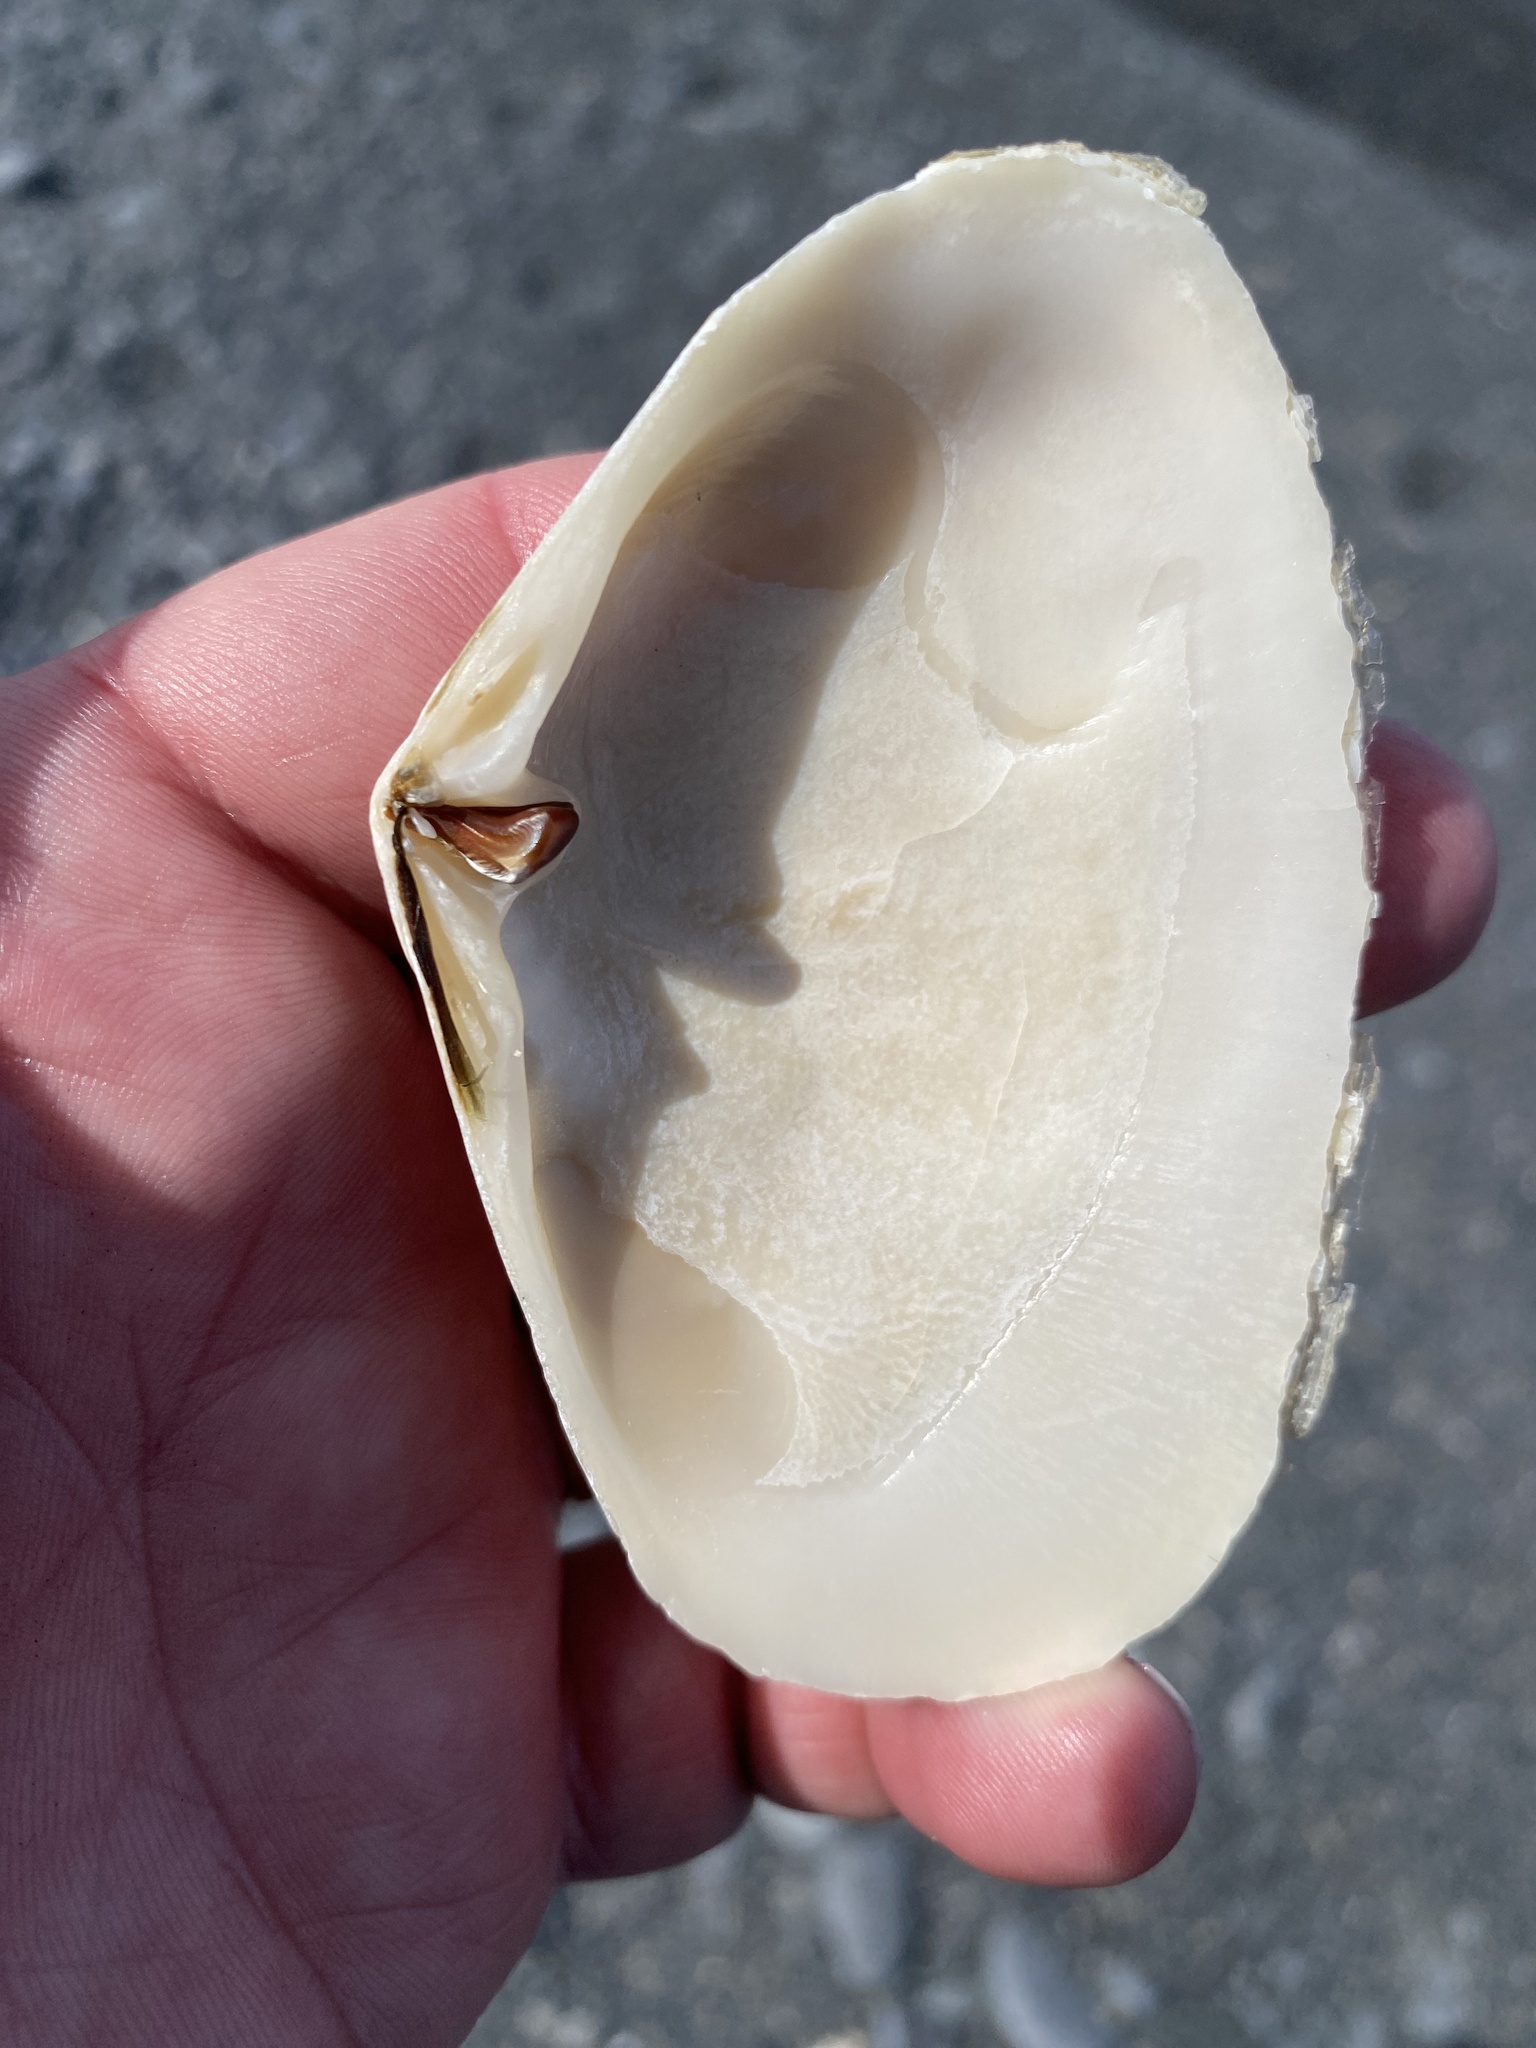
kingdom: Animalia
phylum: Mollusca
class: Bivalvia
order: Venerida
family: Mesodesmatidae
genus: Paphies
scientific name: Paphies donacina
